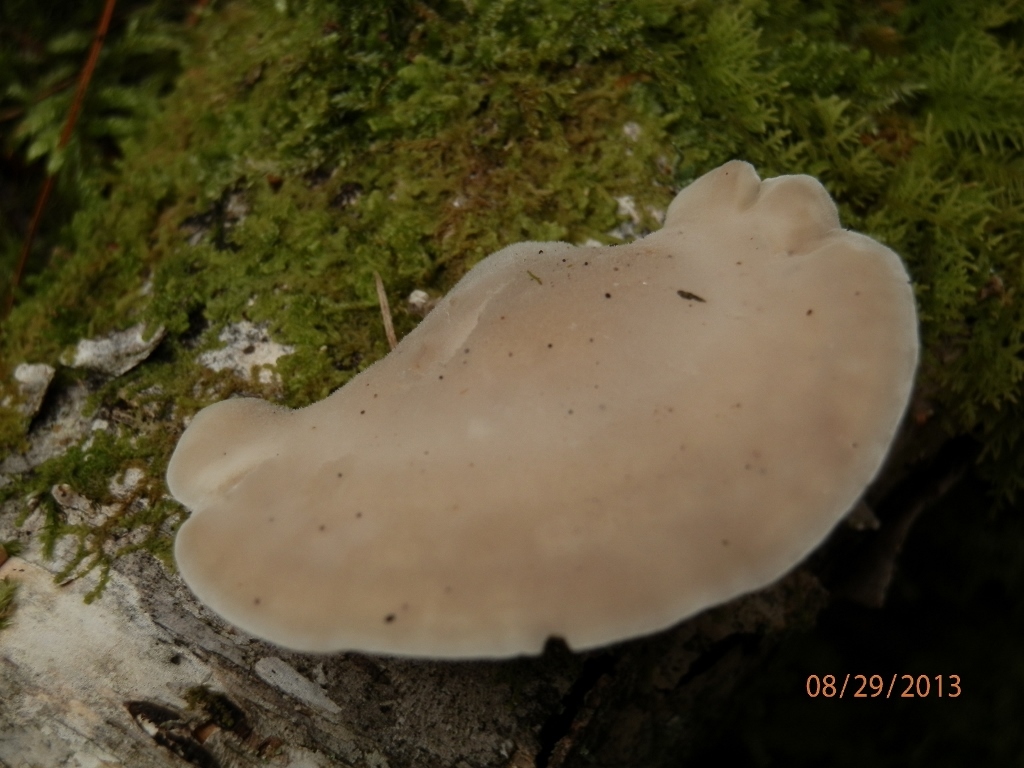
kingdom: Fungi
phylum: Basidiomycota
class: Agaricomycetes
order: Polyporales
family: Incrustoporiaceae
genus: Tyromyces
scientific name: Tyromyces chioneus
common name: White cheese polypore
